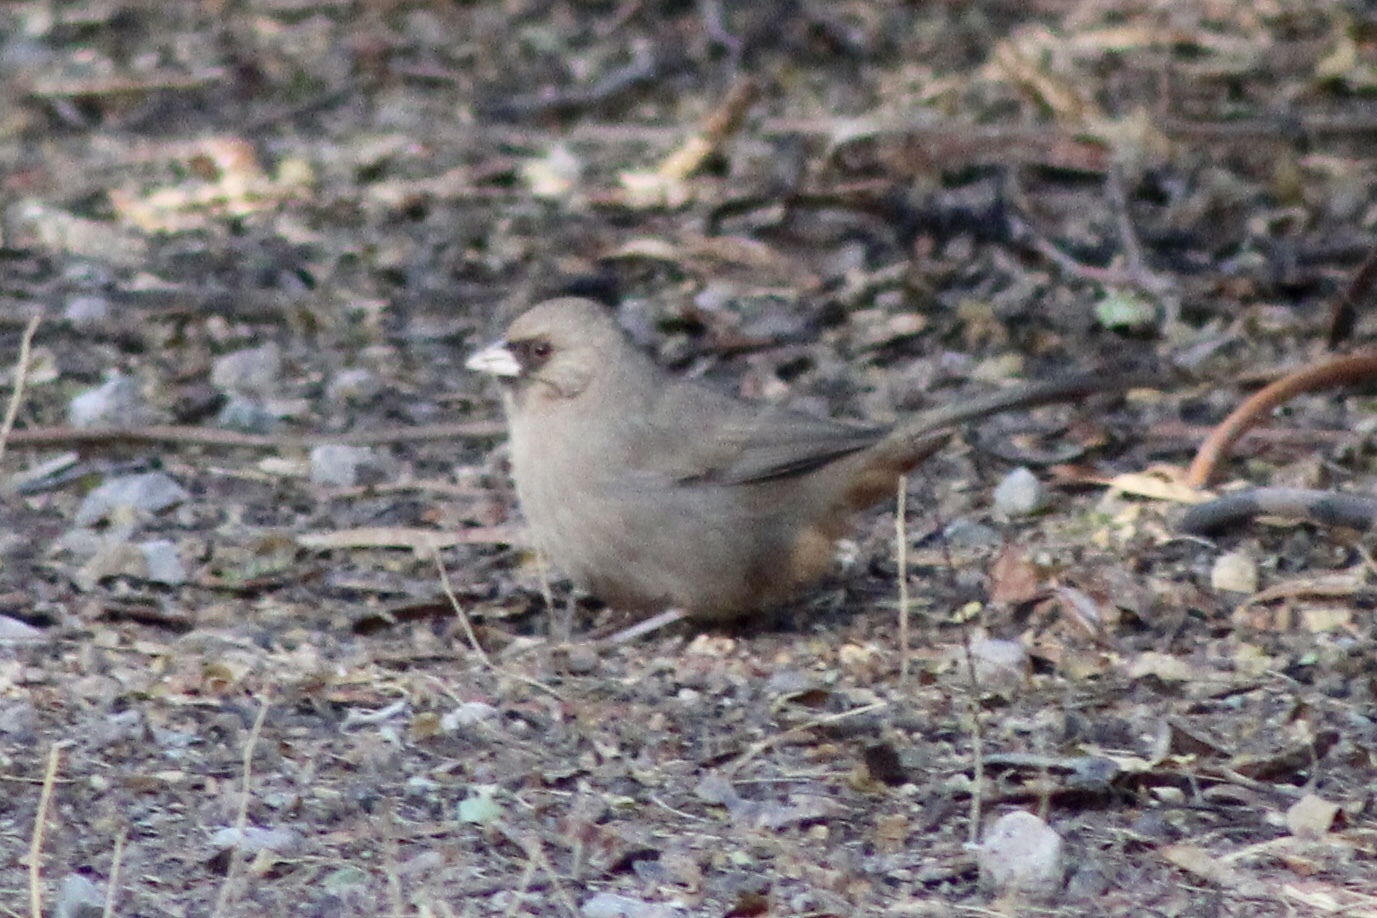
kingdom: Animalia
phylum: Chordata
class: Aves
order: Passeriformes
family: Passerellidae
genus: Melozone
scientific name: Melozone aberti
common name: Abert's towhee
